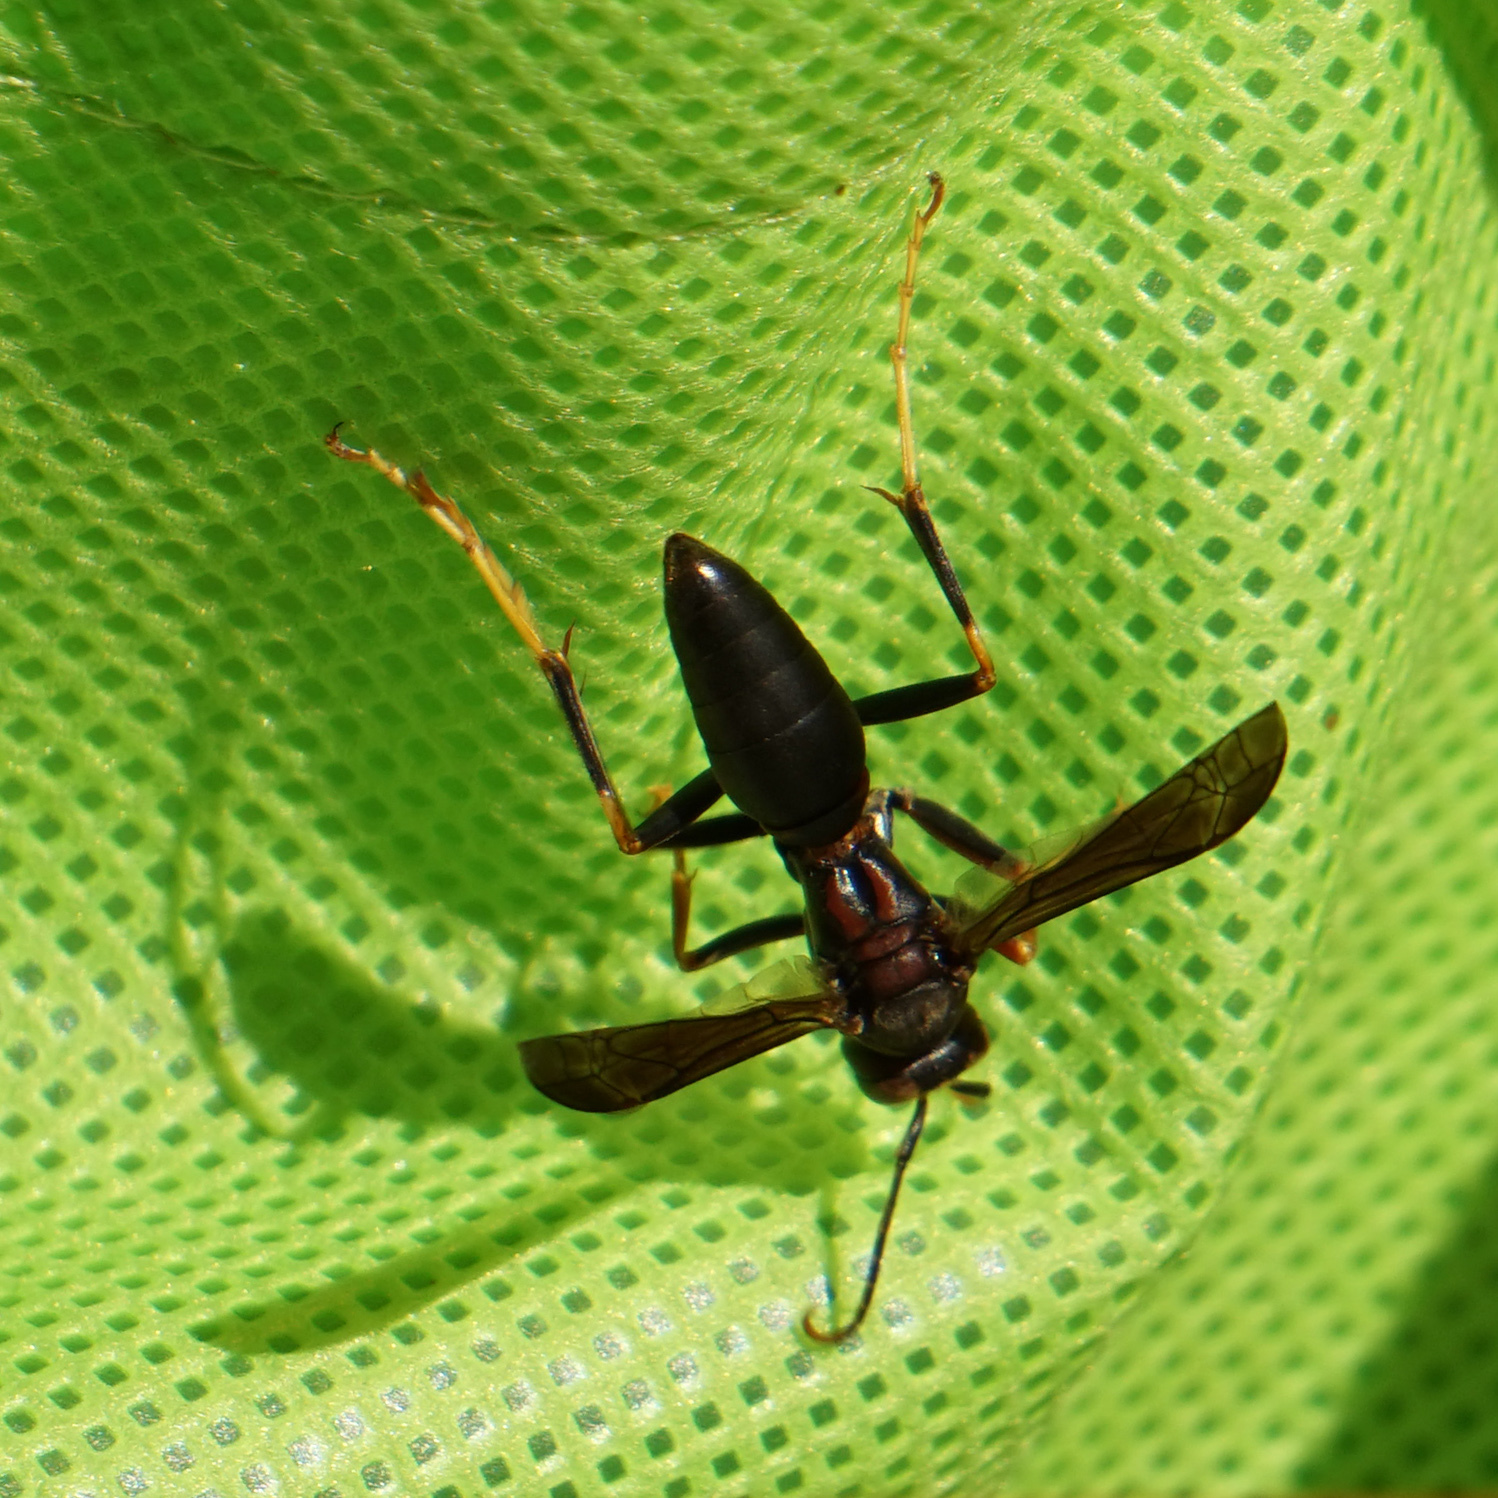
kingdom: Animalia
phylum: Arthropoda
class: Insecta
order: Hymenoptera
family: Eumenidae
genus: Polistes
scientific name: Polistes metricus
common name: Metric paper wasp
